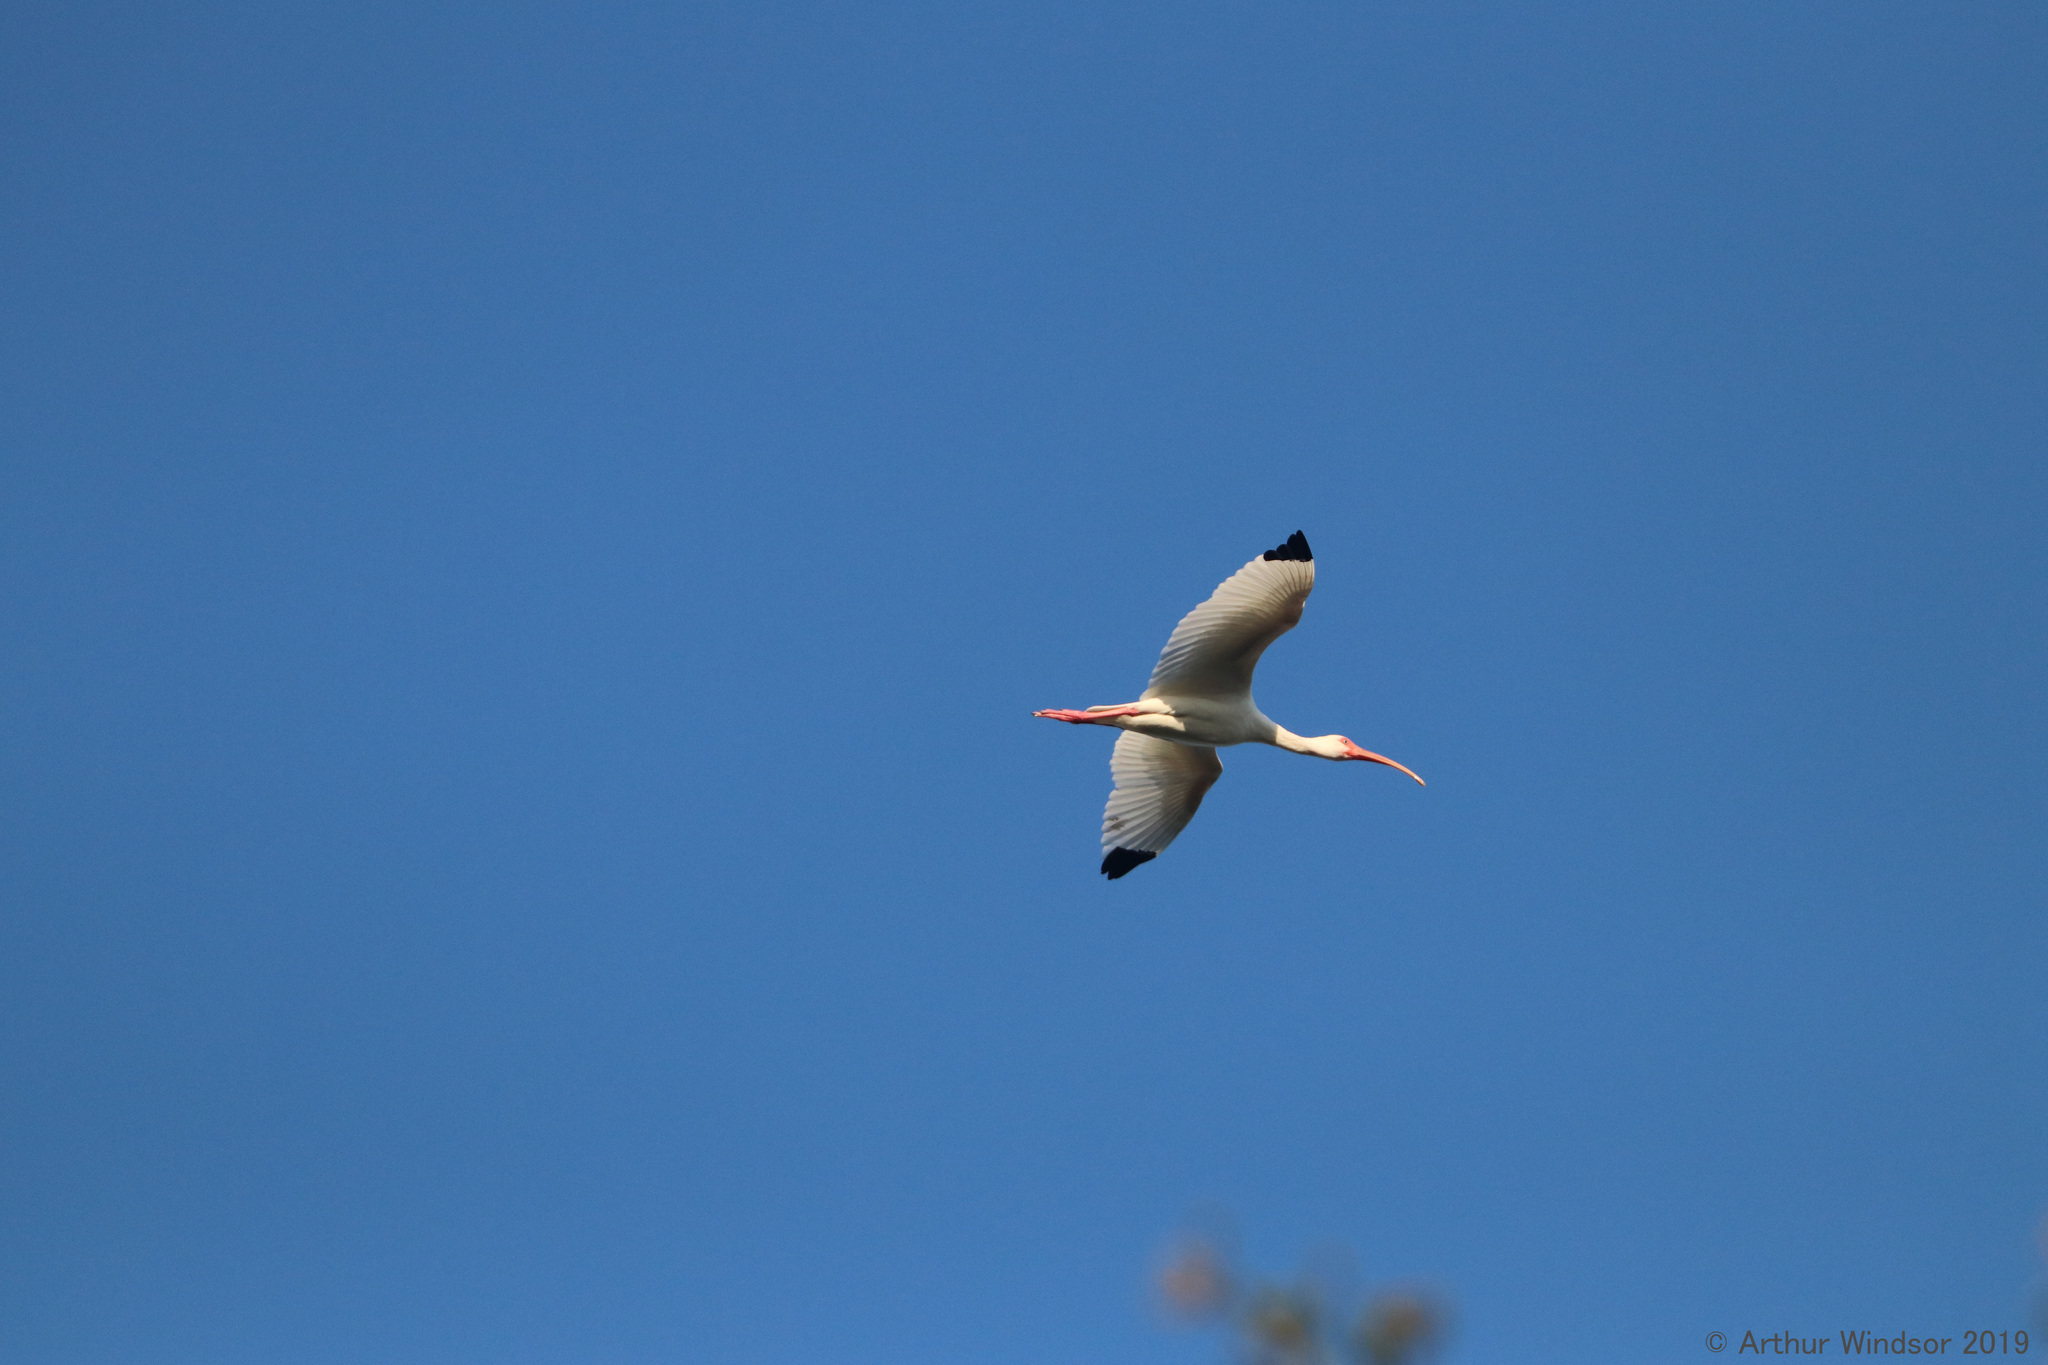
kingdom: Animalia
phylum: Chordata
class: Aves
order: Pelecaniformes
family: Threskiornithidae
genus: Eudocimus
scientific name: Eudocimus albus
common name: White ibis
